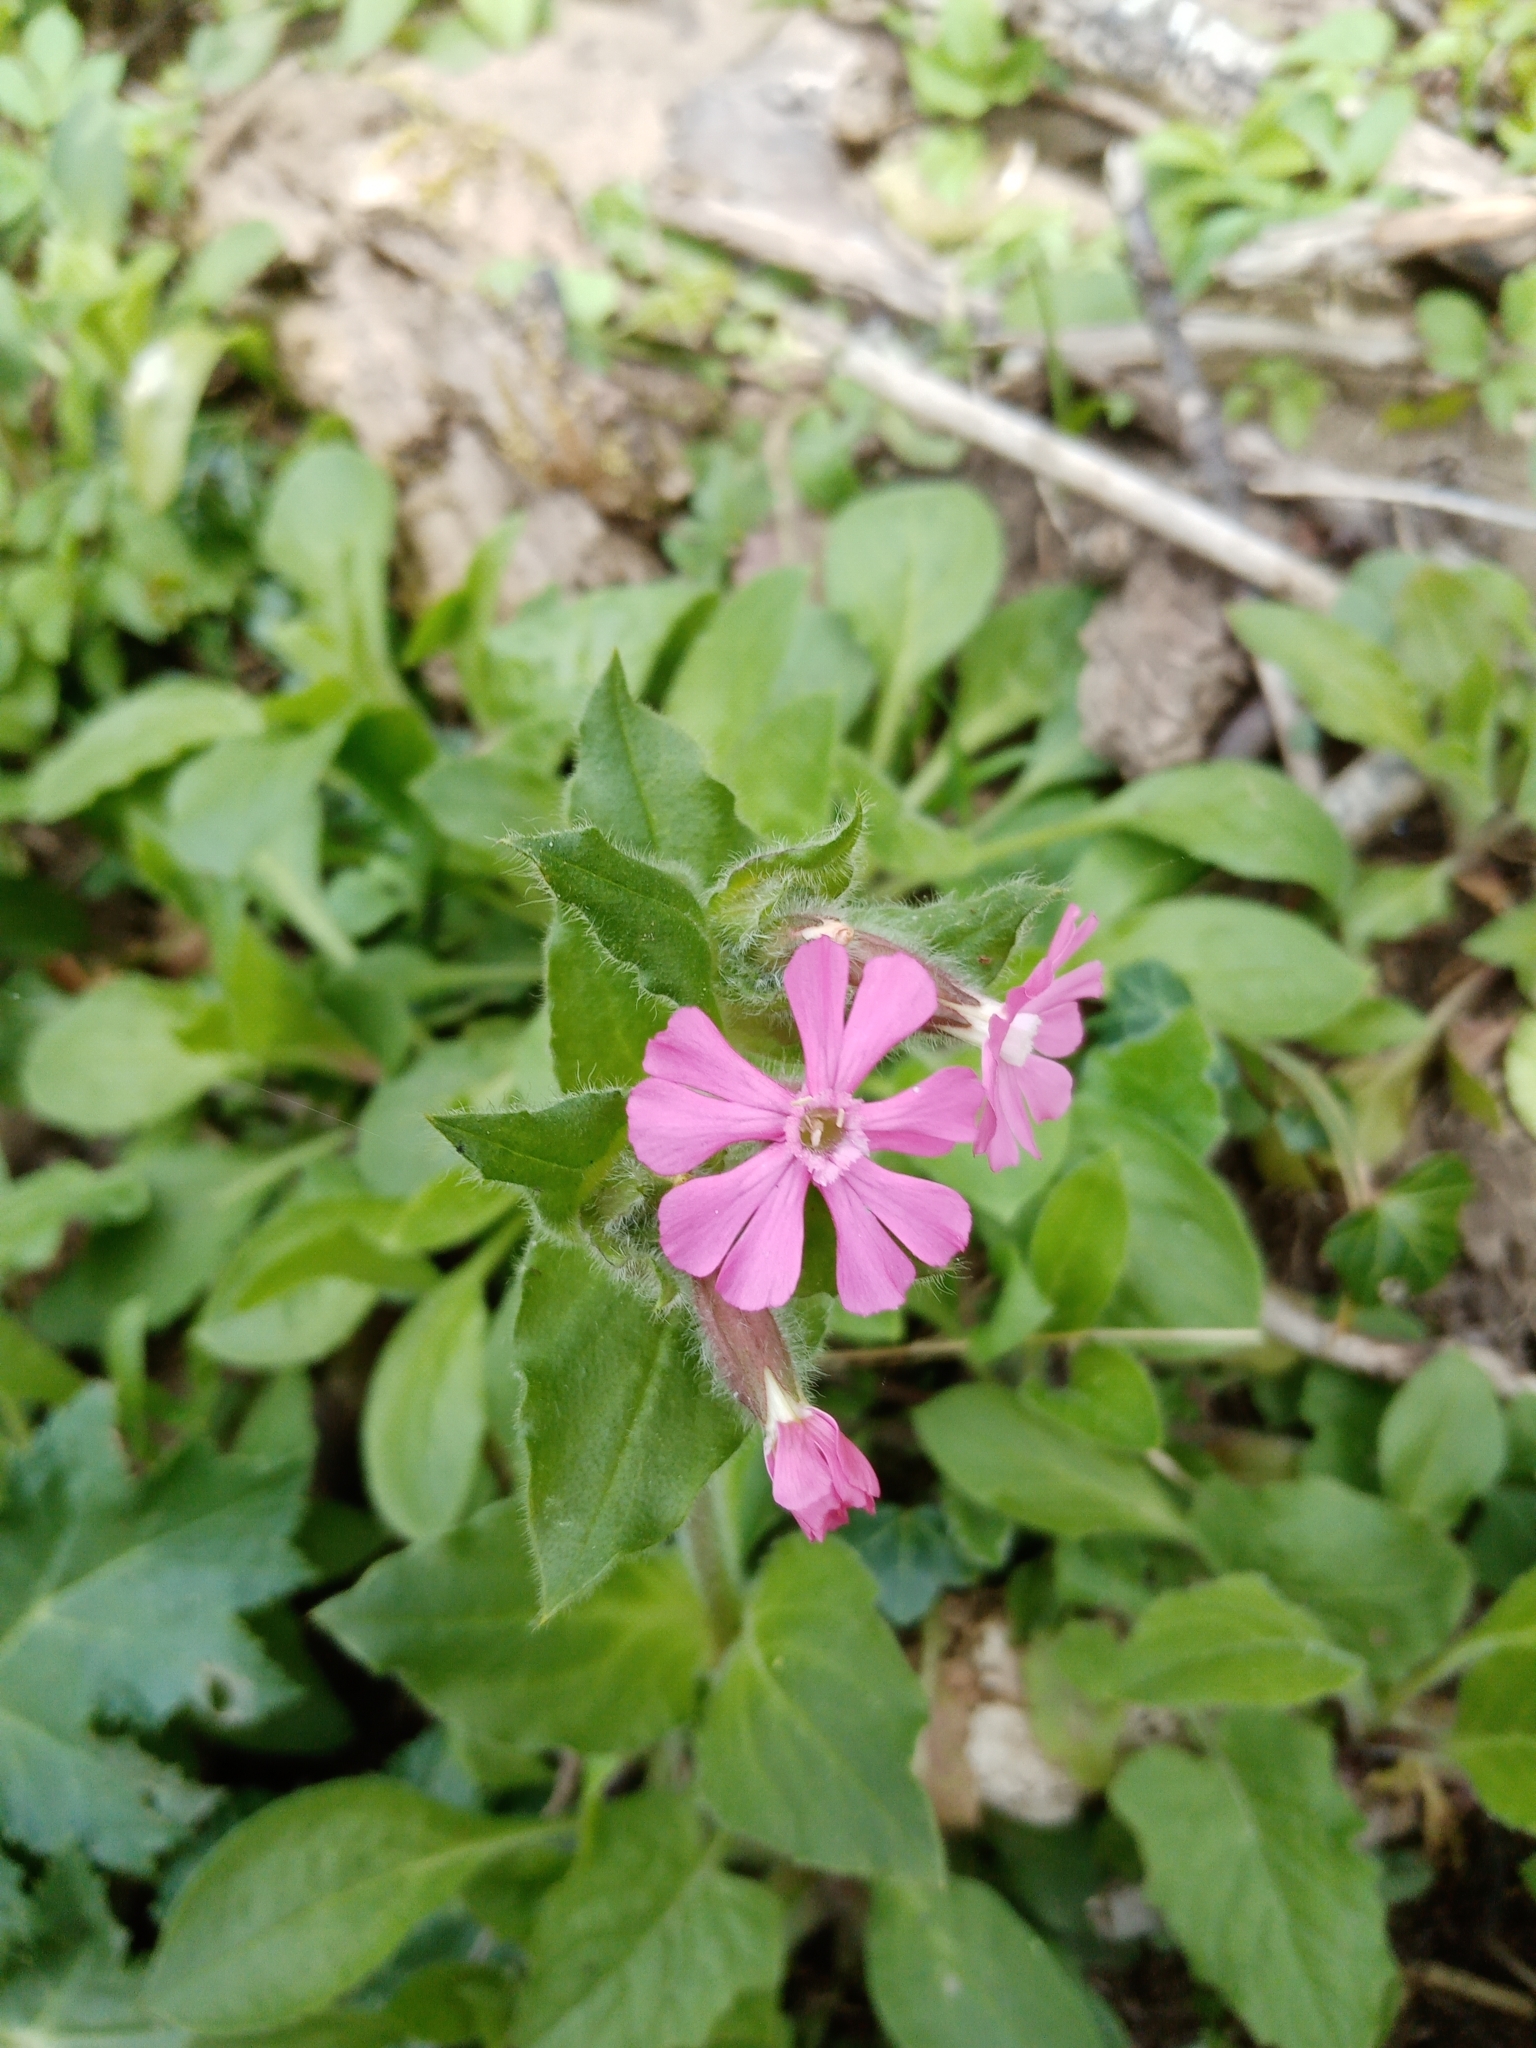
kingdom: Plantae
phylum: Tracheophyta
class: Magnoliopsida
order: Caryophyllales
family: Caryophyllaceae
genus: Silene
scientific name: Silene dioica
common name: Red campion
